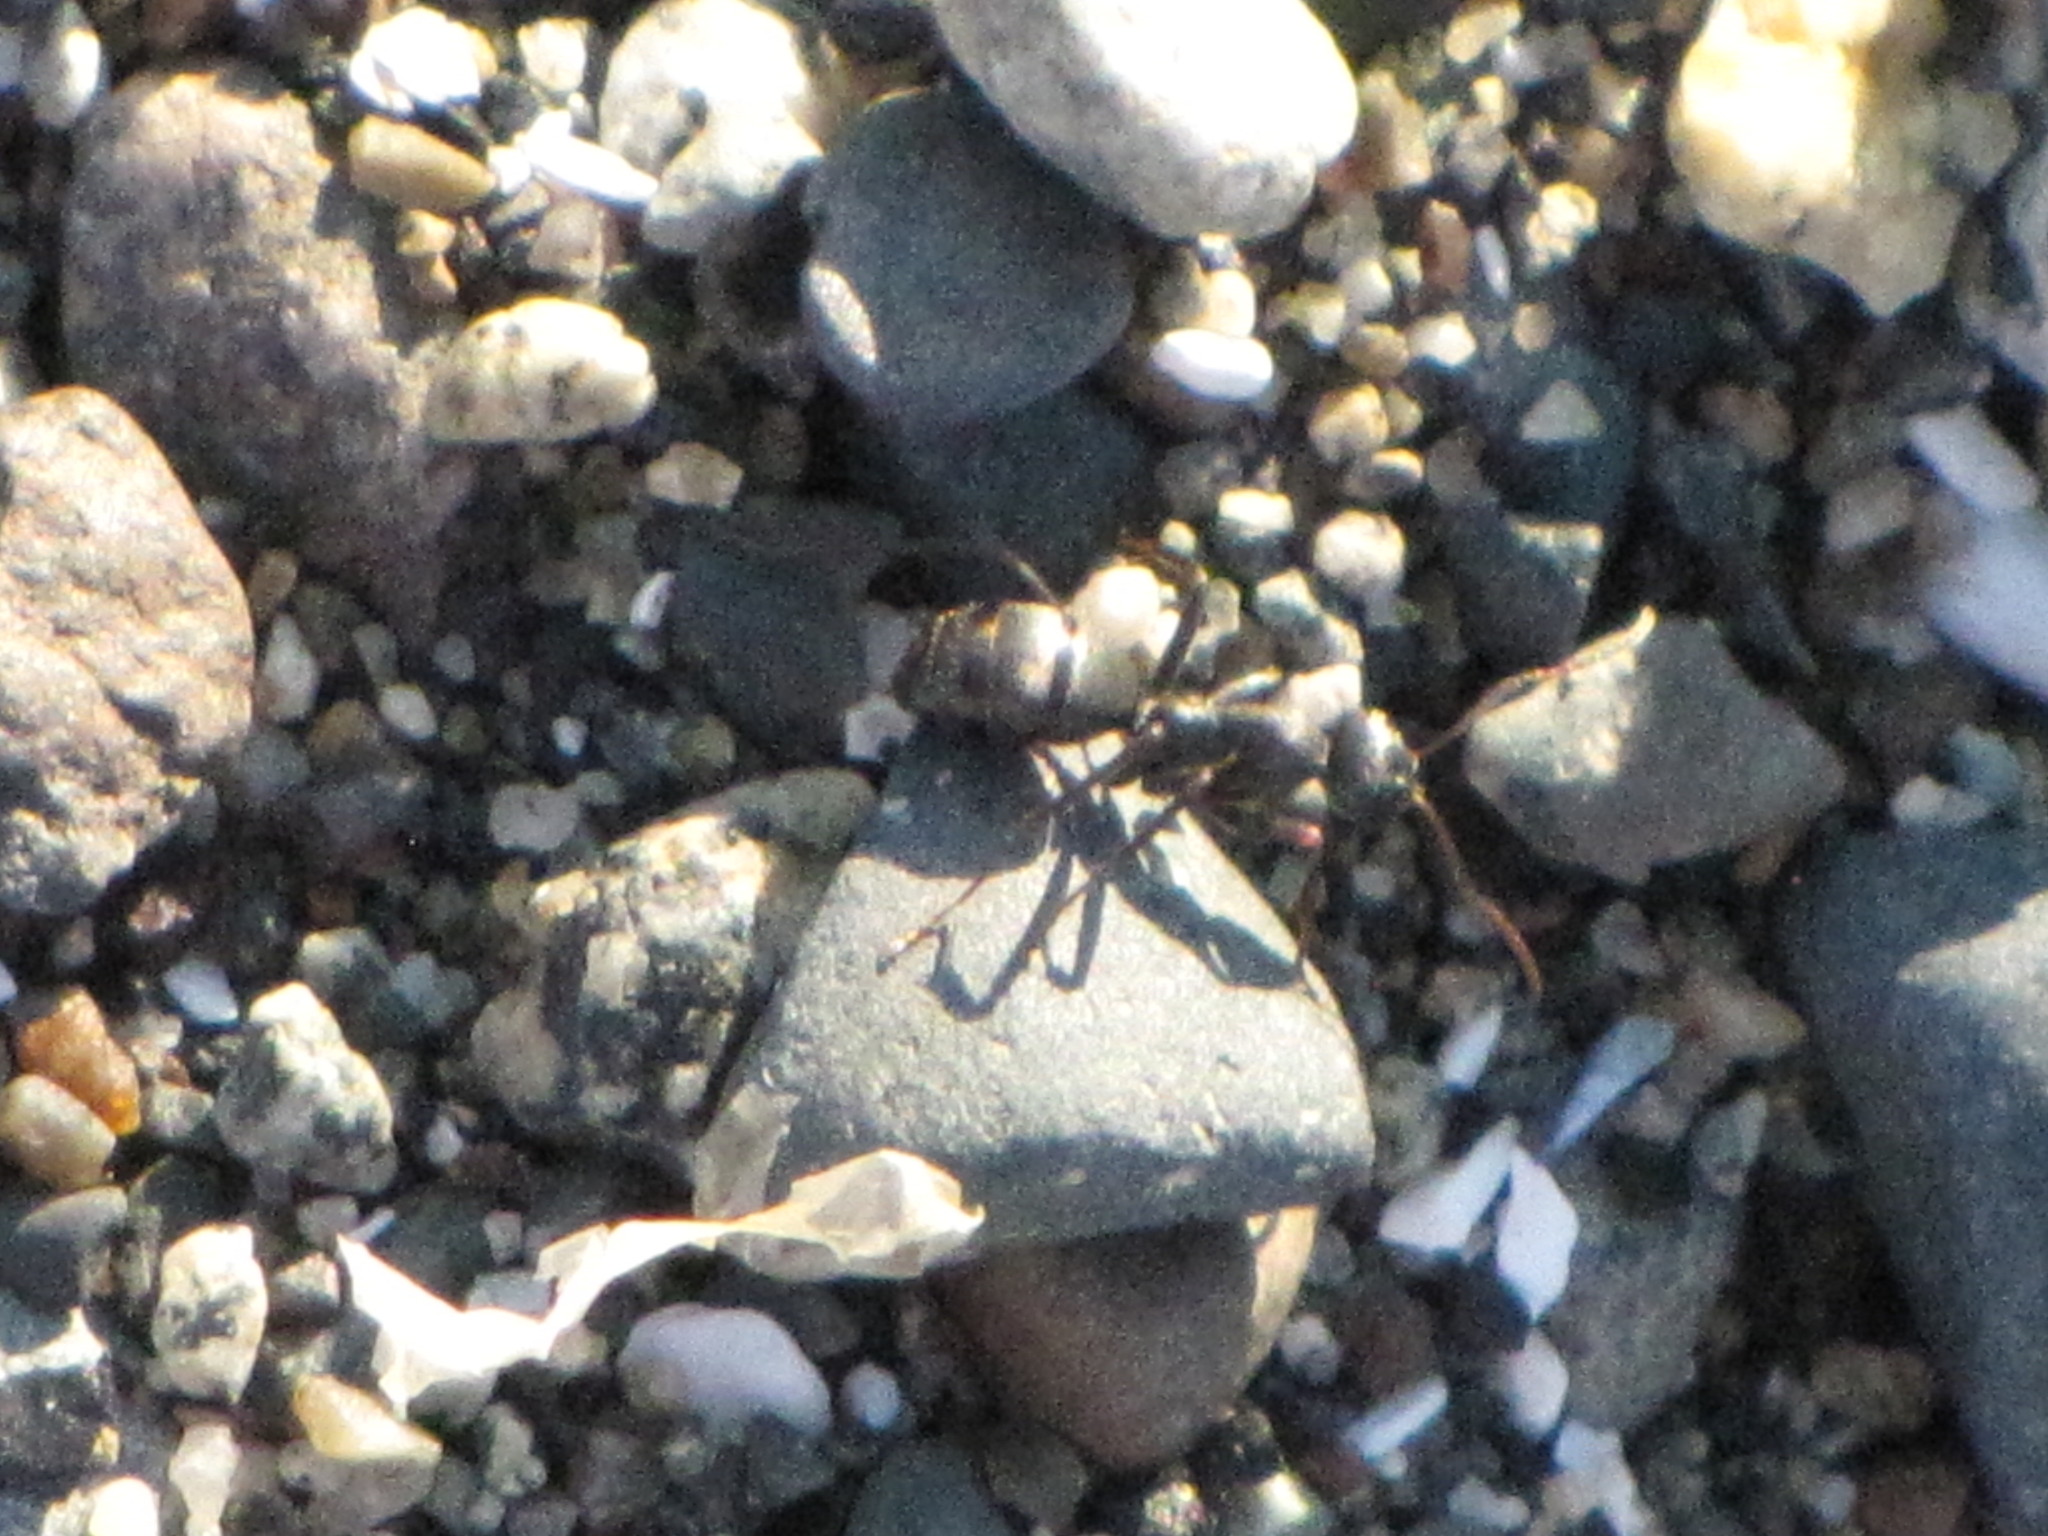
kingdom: Animalia
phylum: Arthropoda
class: Insecta
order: Hymenoptera
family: Formicidae
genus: Camponotus
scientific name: Camponotus modoc
